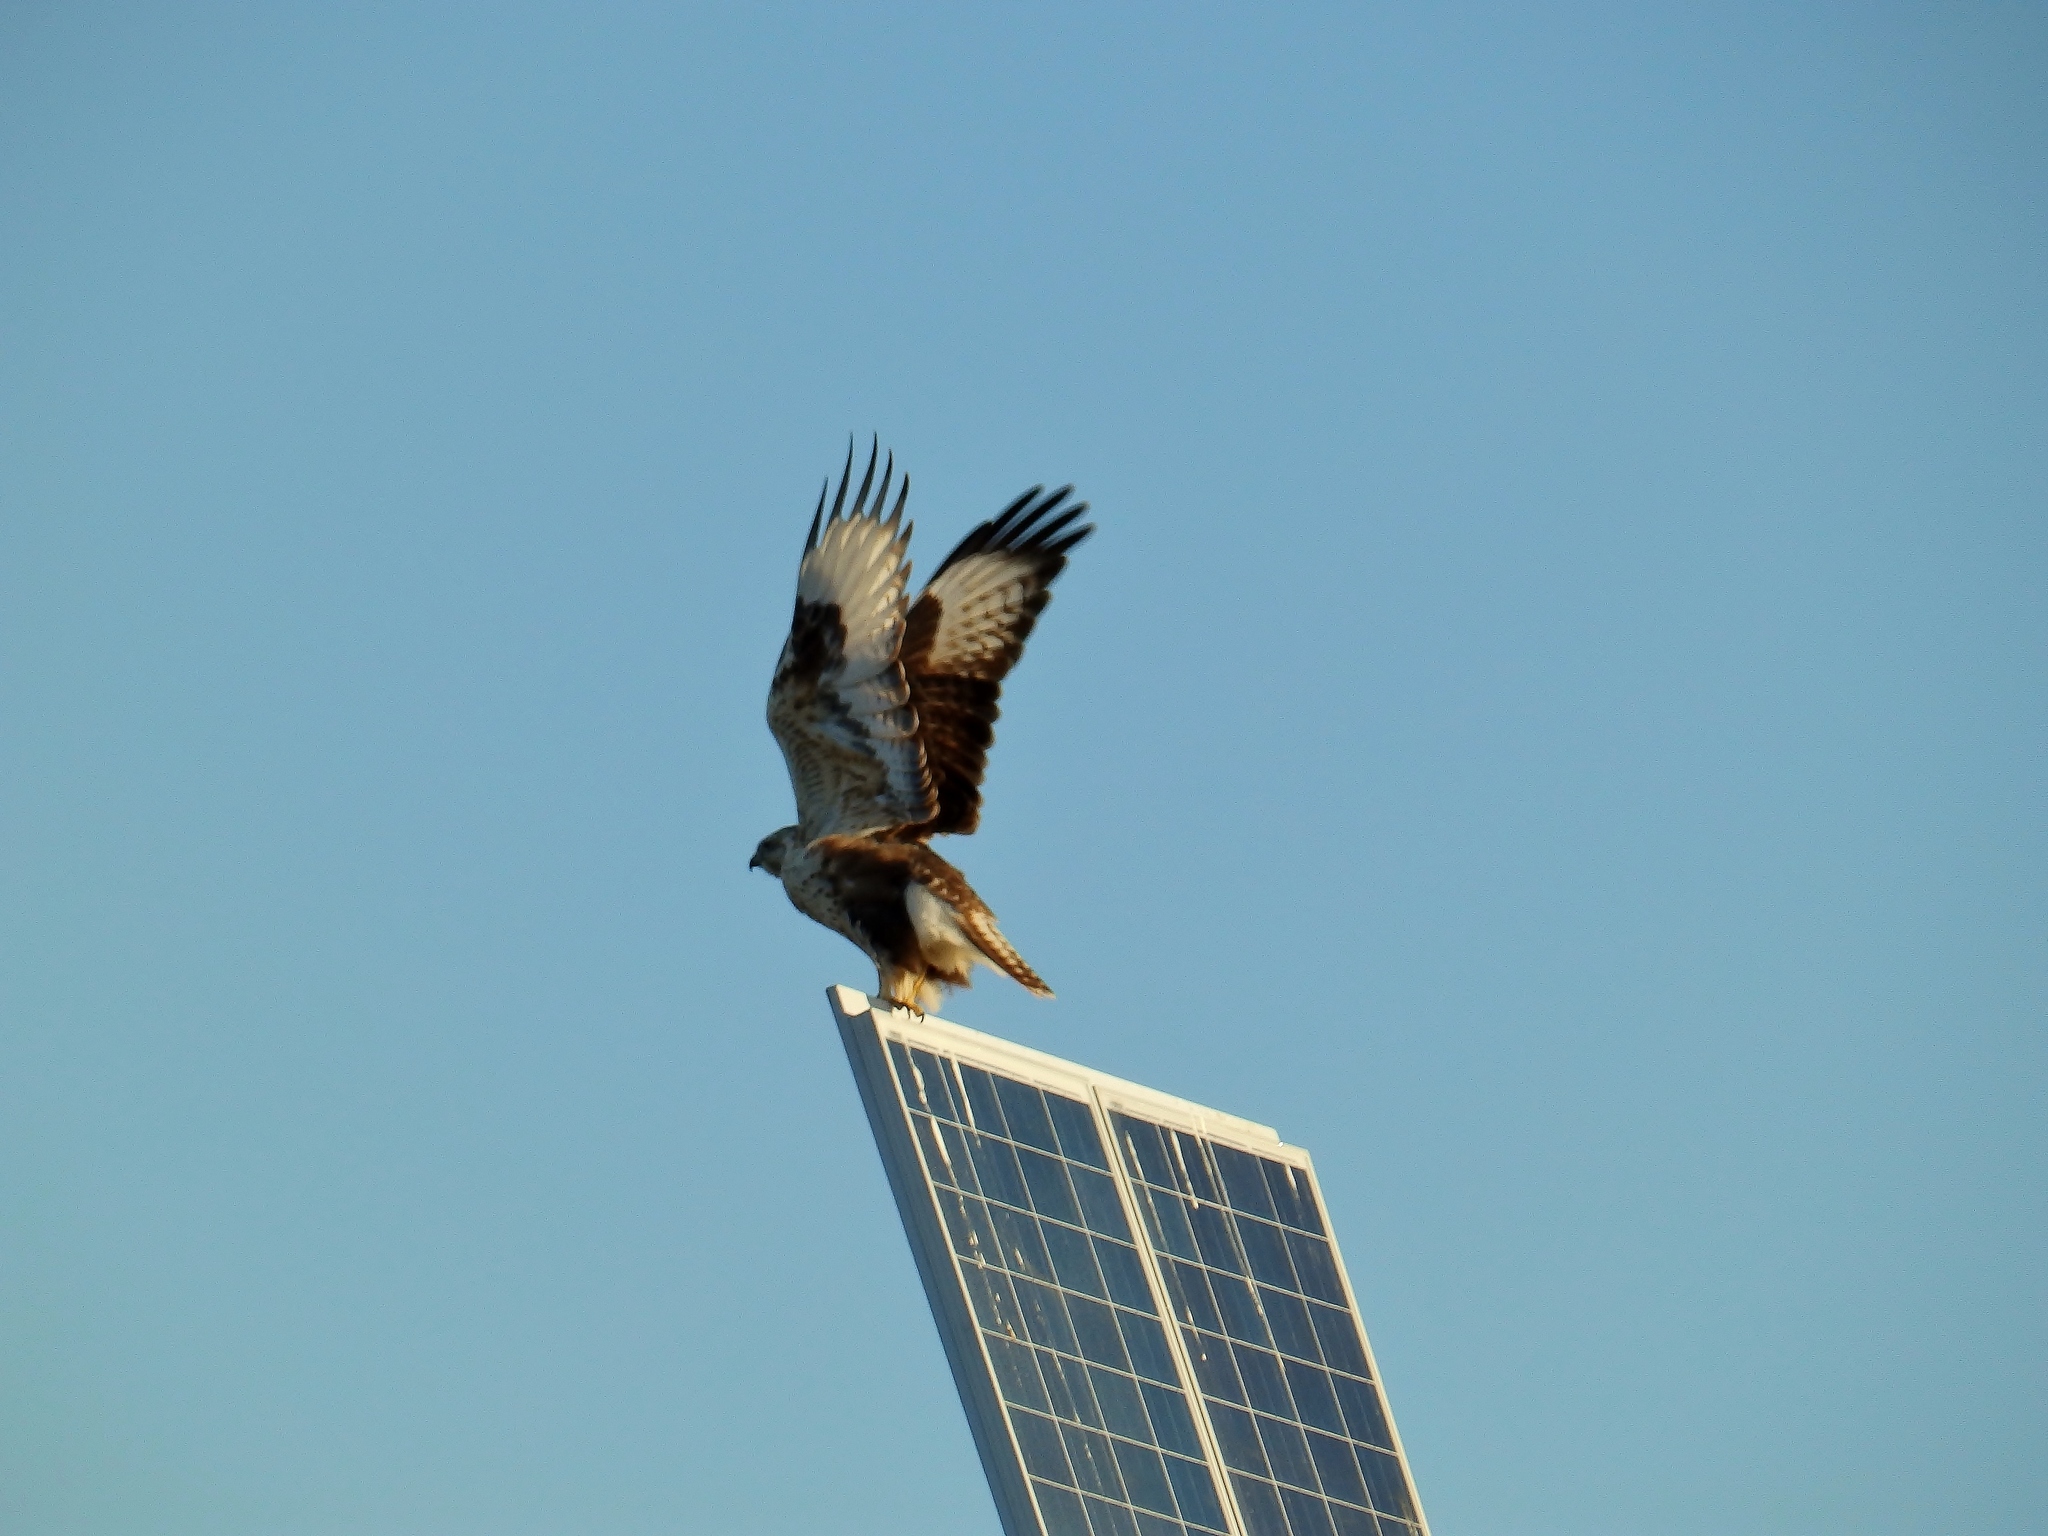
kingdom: Animalia
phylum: Chordata
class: Aves
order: Accipitriformes
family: Accipitridae
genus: Buteo
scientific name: Buteo hemilasius
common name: Upland buzzard
